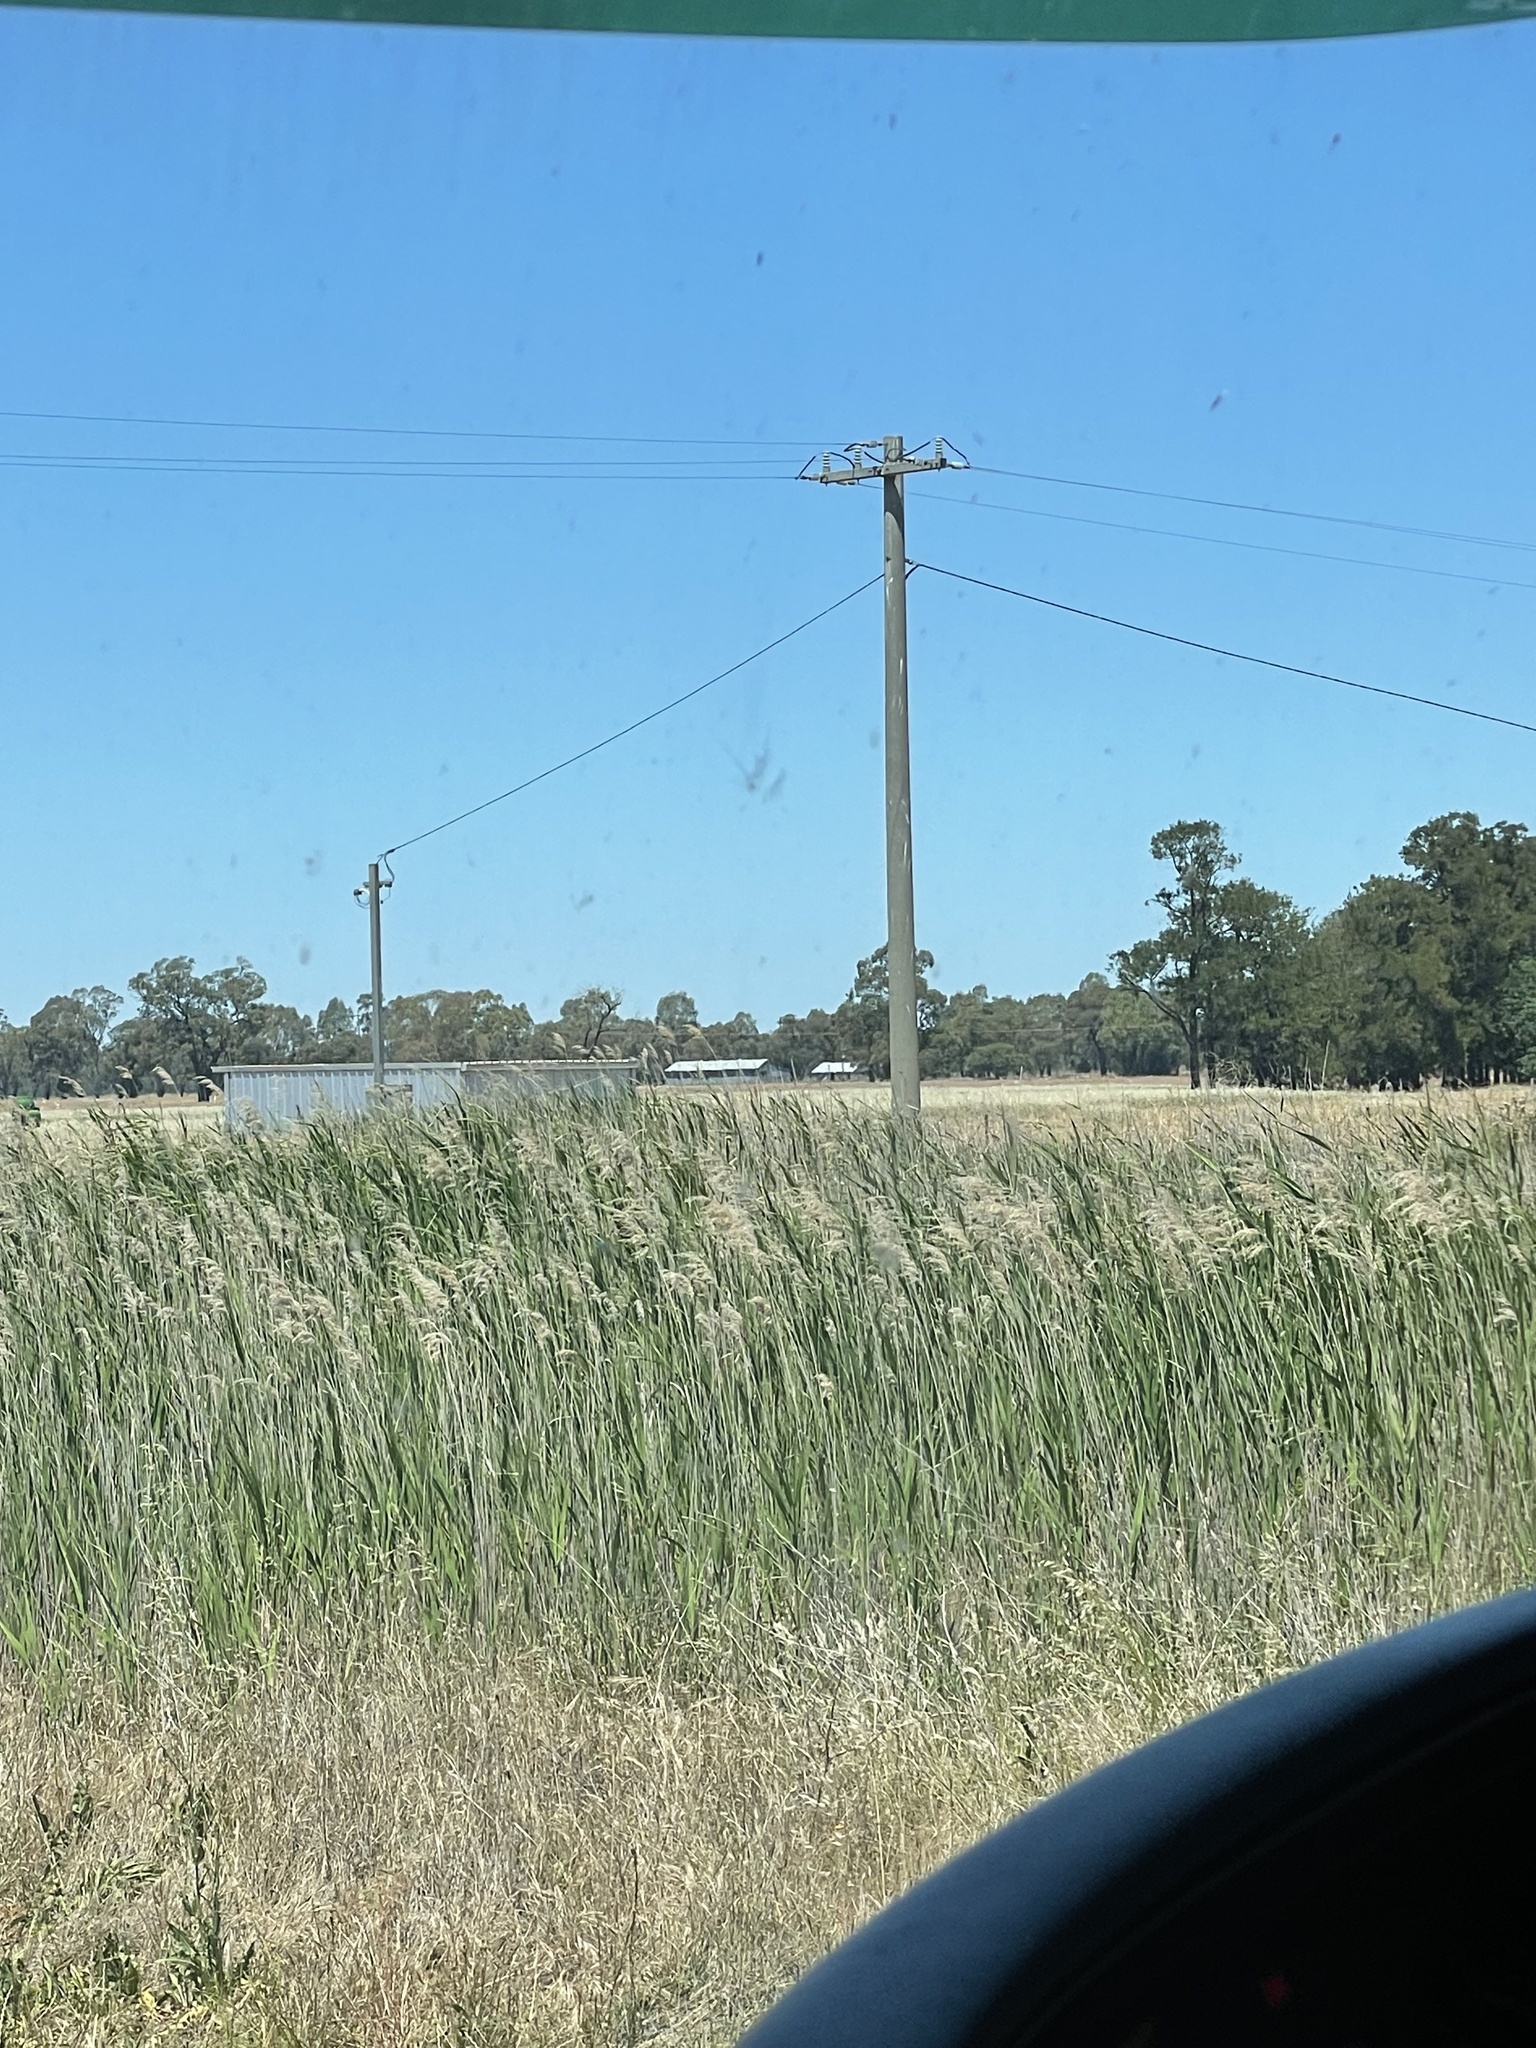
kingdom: Plantae
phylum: Tracheophyta
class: Liliopsida
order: Poales
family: Poaceae
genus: Phragmites
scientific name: Phragmites australis
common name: Common reed
